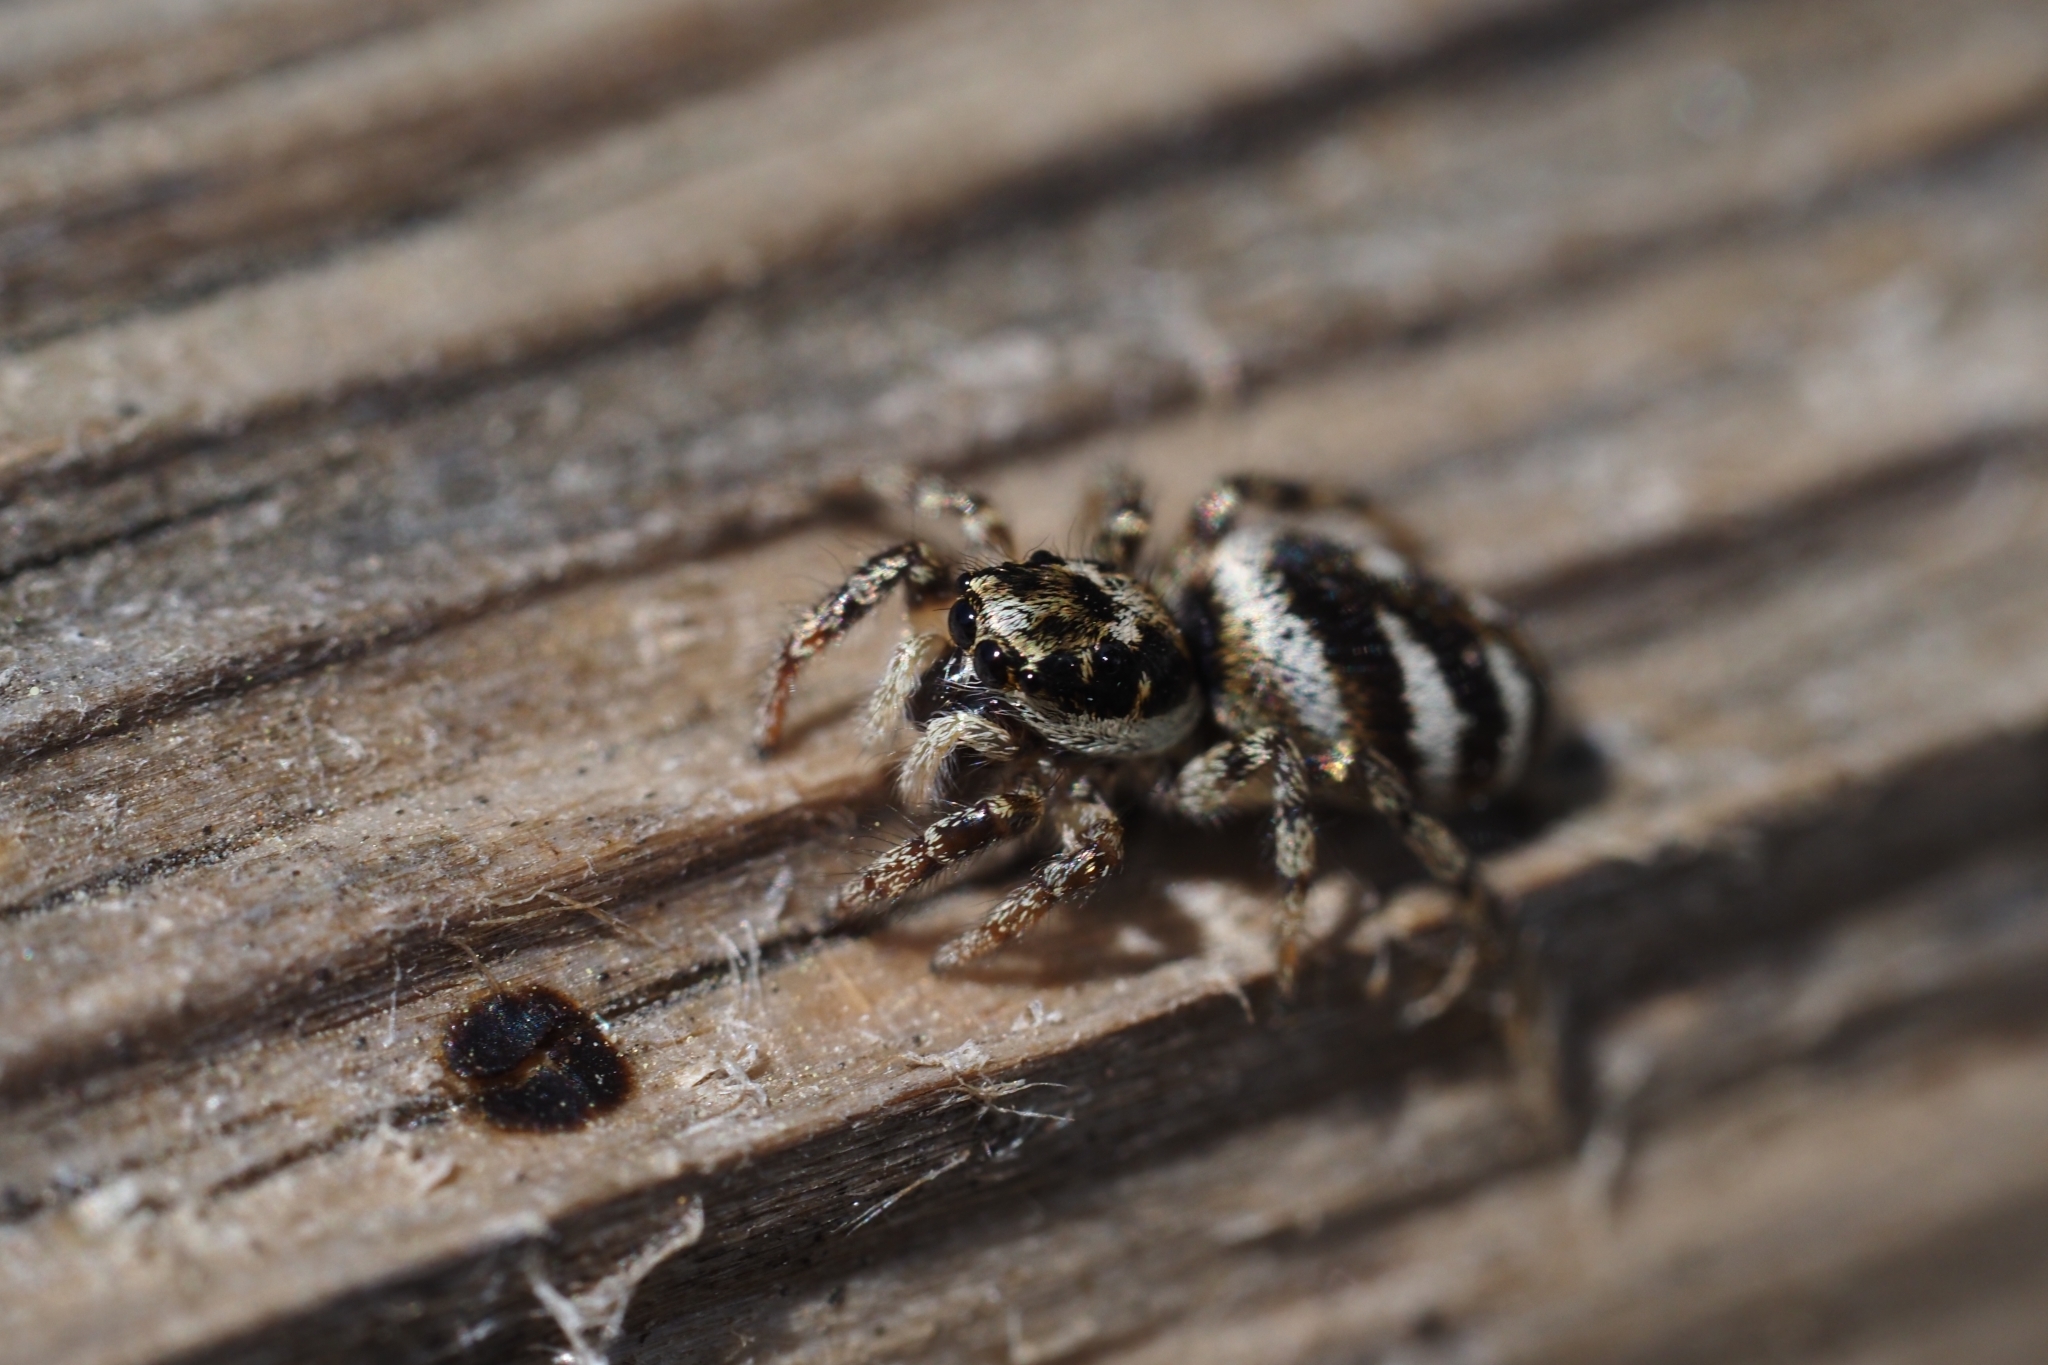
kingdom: Animalia
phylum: Arthropoda
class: Arachnida
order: Araneae
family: Salticidae
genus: Salticus
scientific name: Salticus scenicus
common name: Zebra jumper
